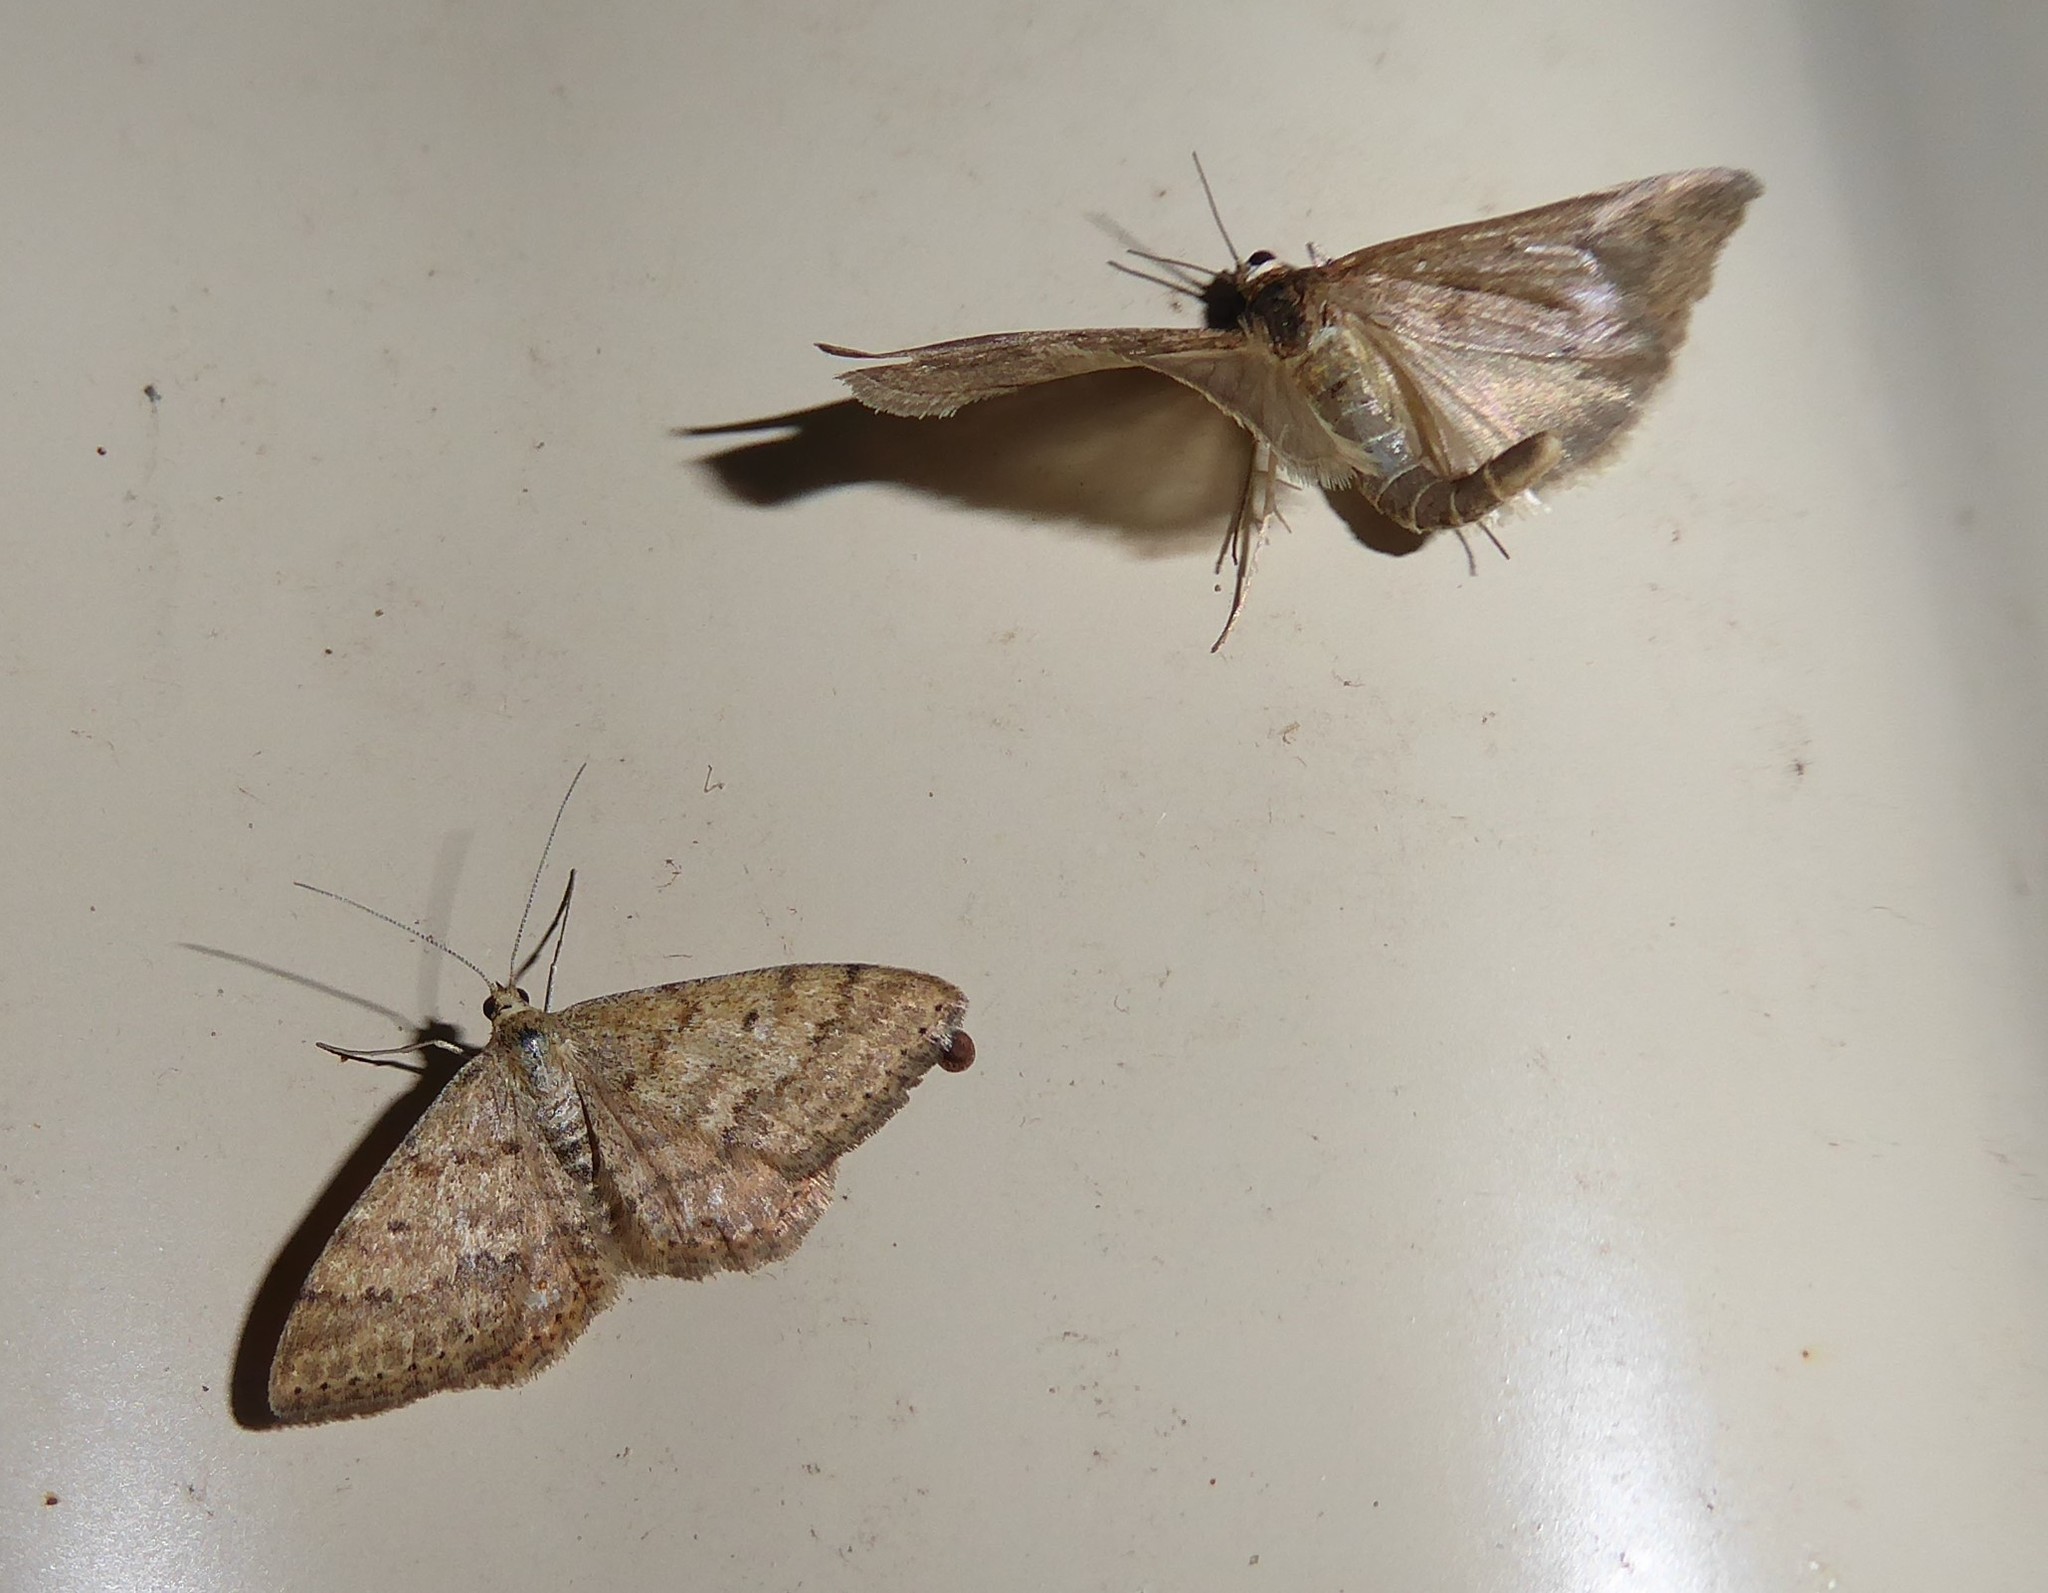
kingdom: Animalia
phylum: Arthropoda
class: Insecta
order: Lepidoptera
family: Geometridae
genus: Scopula
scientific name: Scopula rubraria
